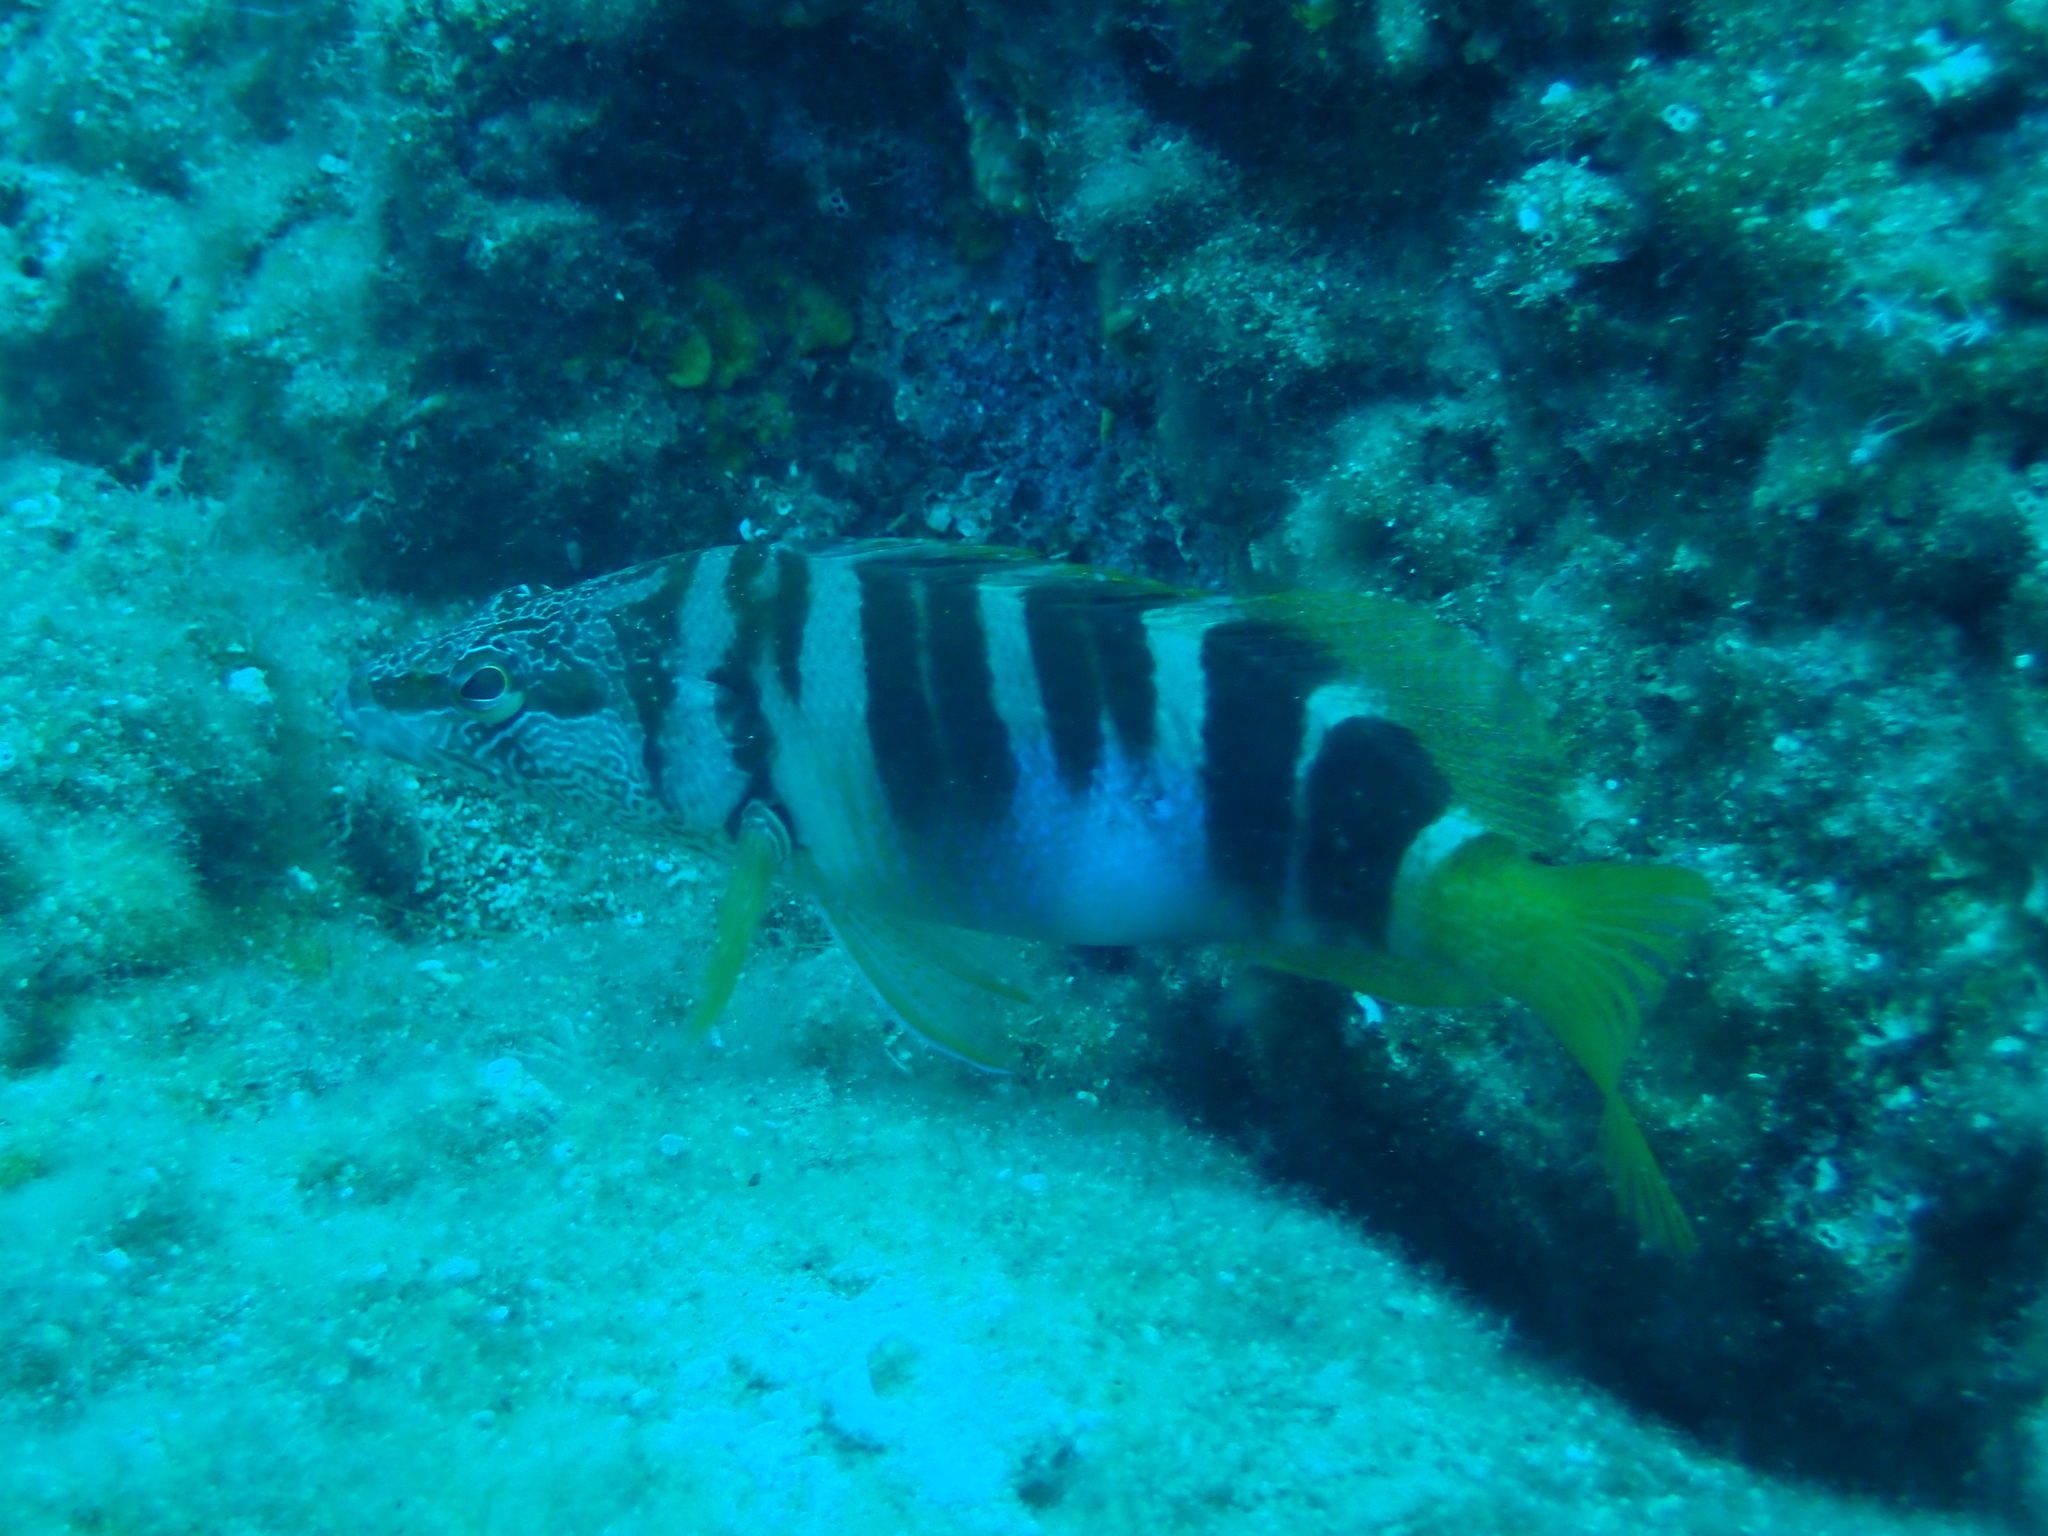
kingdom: Animalia
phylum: Chordata
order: Perciformes
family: Serranidae
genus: Serranus
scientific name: Serranus scriba
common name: Painted comber
